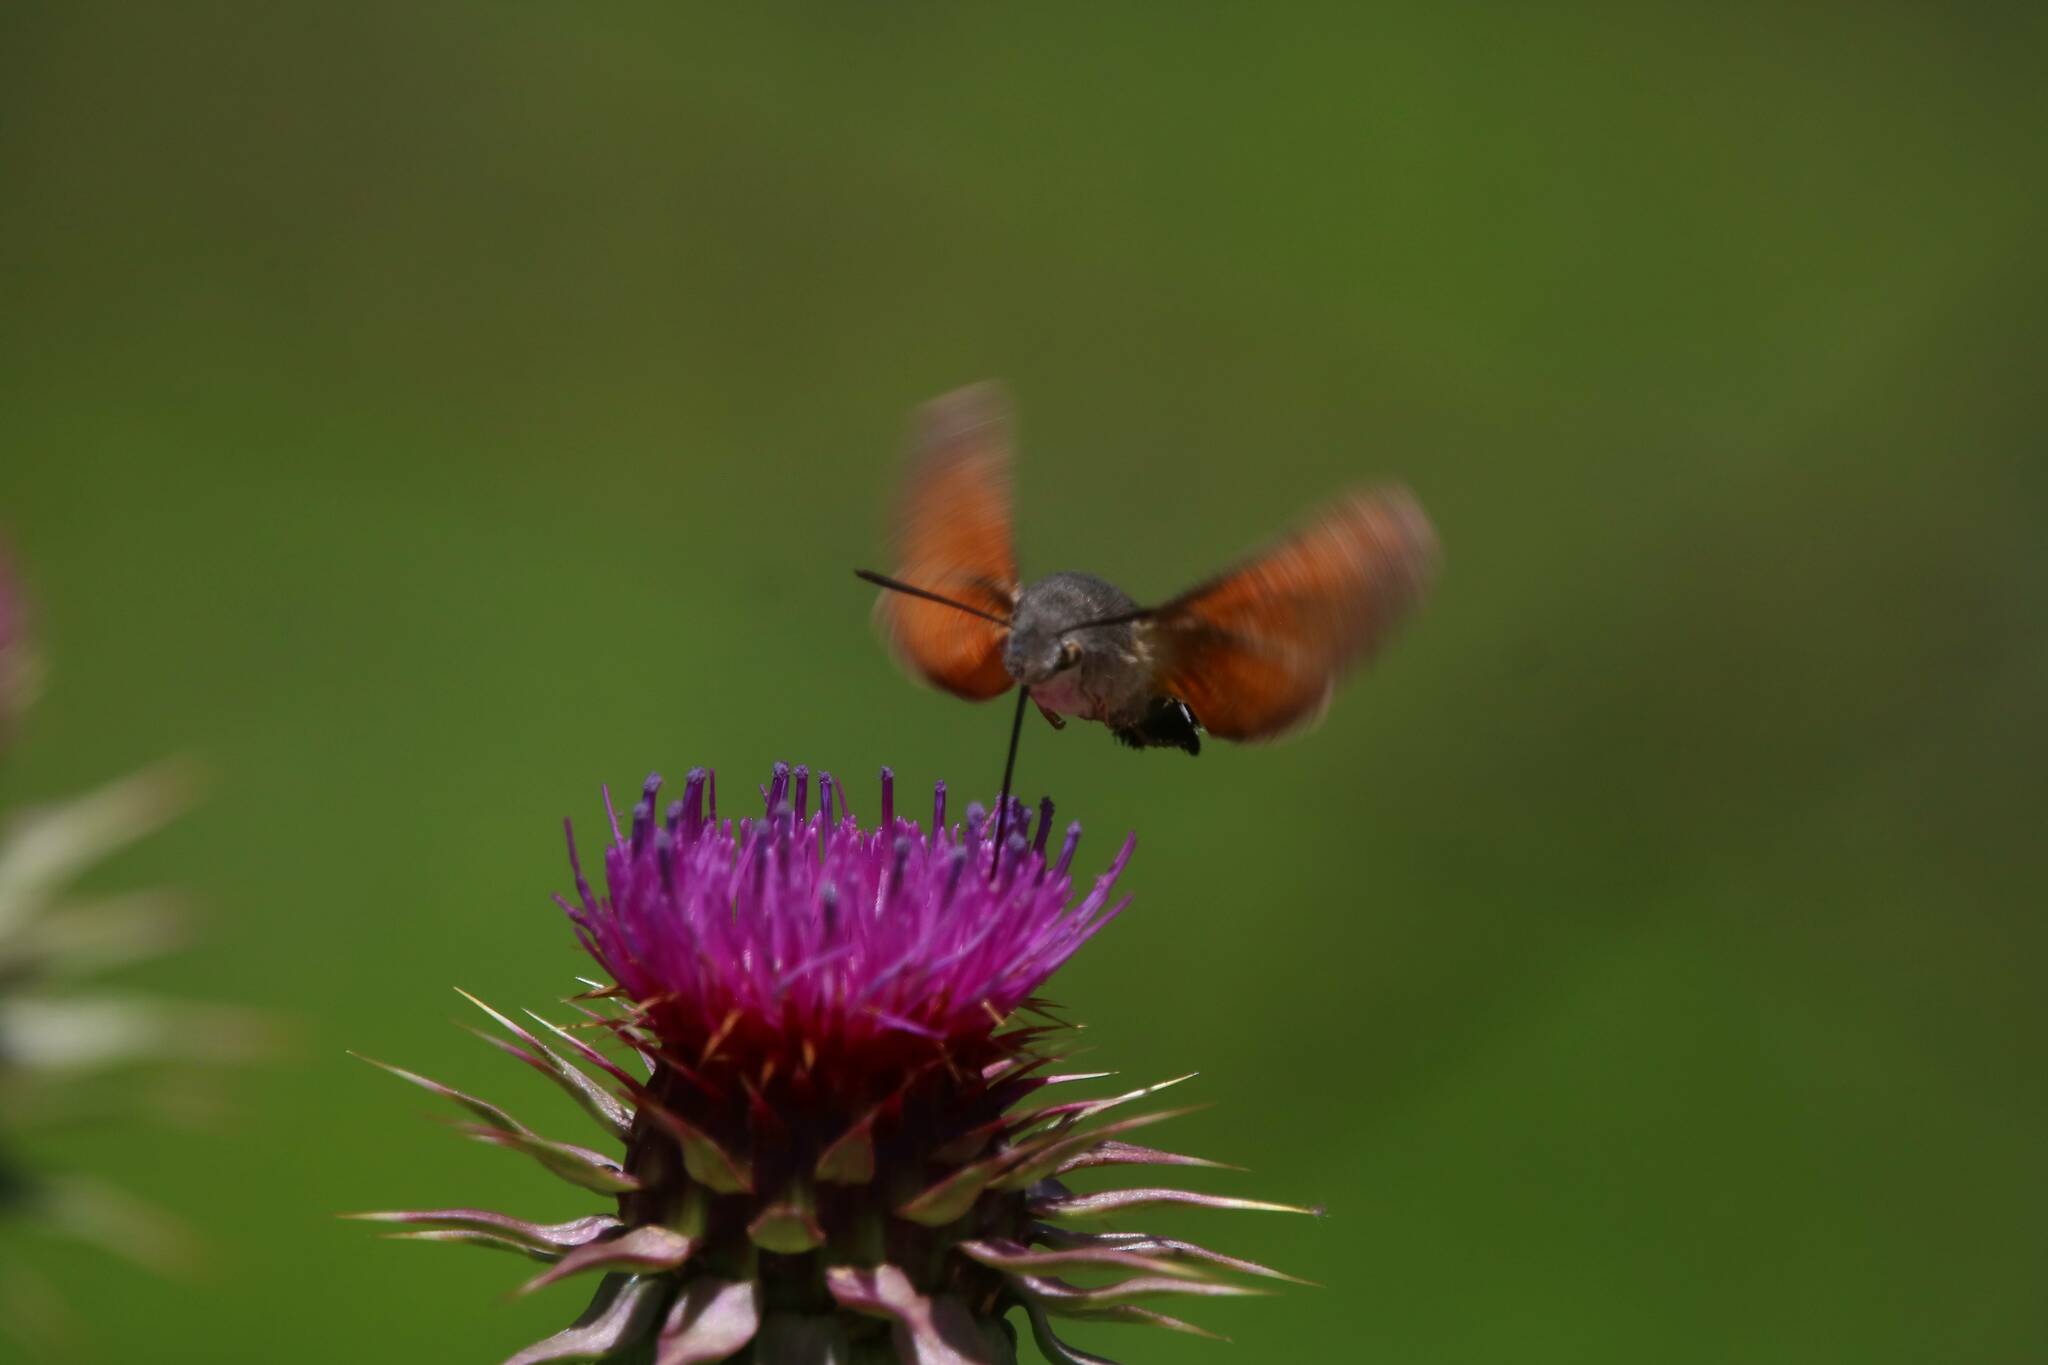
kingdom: Animalia
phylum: Arthropoda
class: Insecta
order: Lepidoptera
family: Sphingidae
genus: Macroglossum
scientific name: Macroglossum stellatarum
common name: Humming-bird hawk-moth
